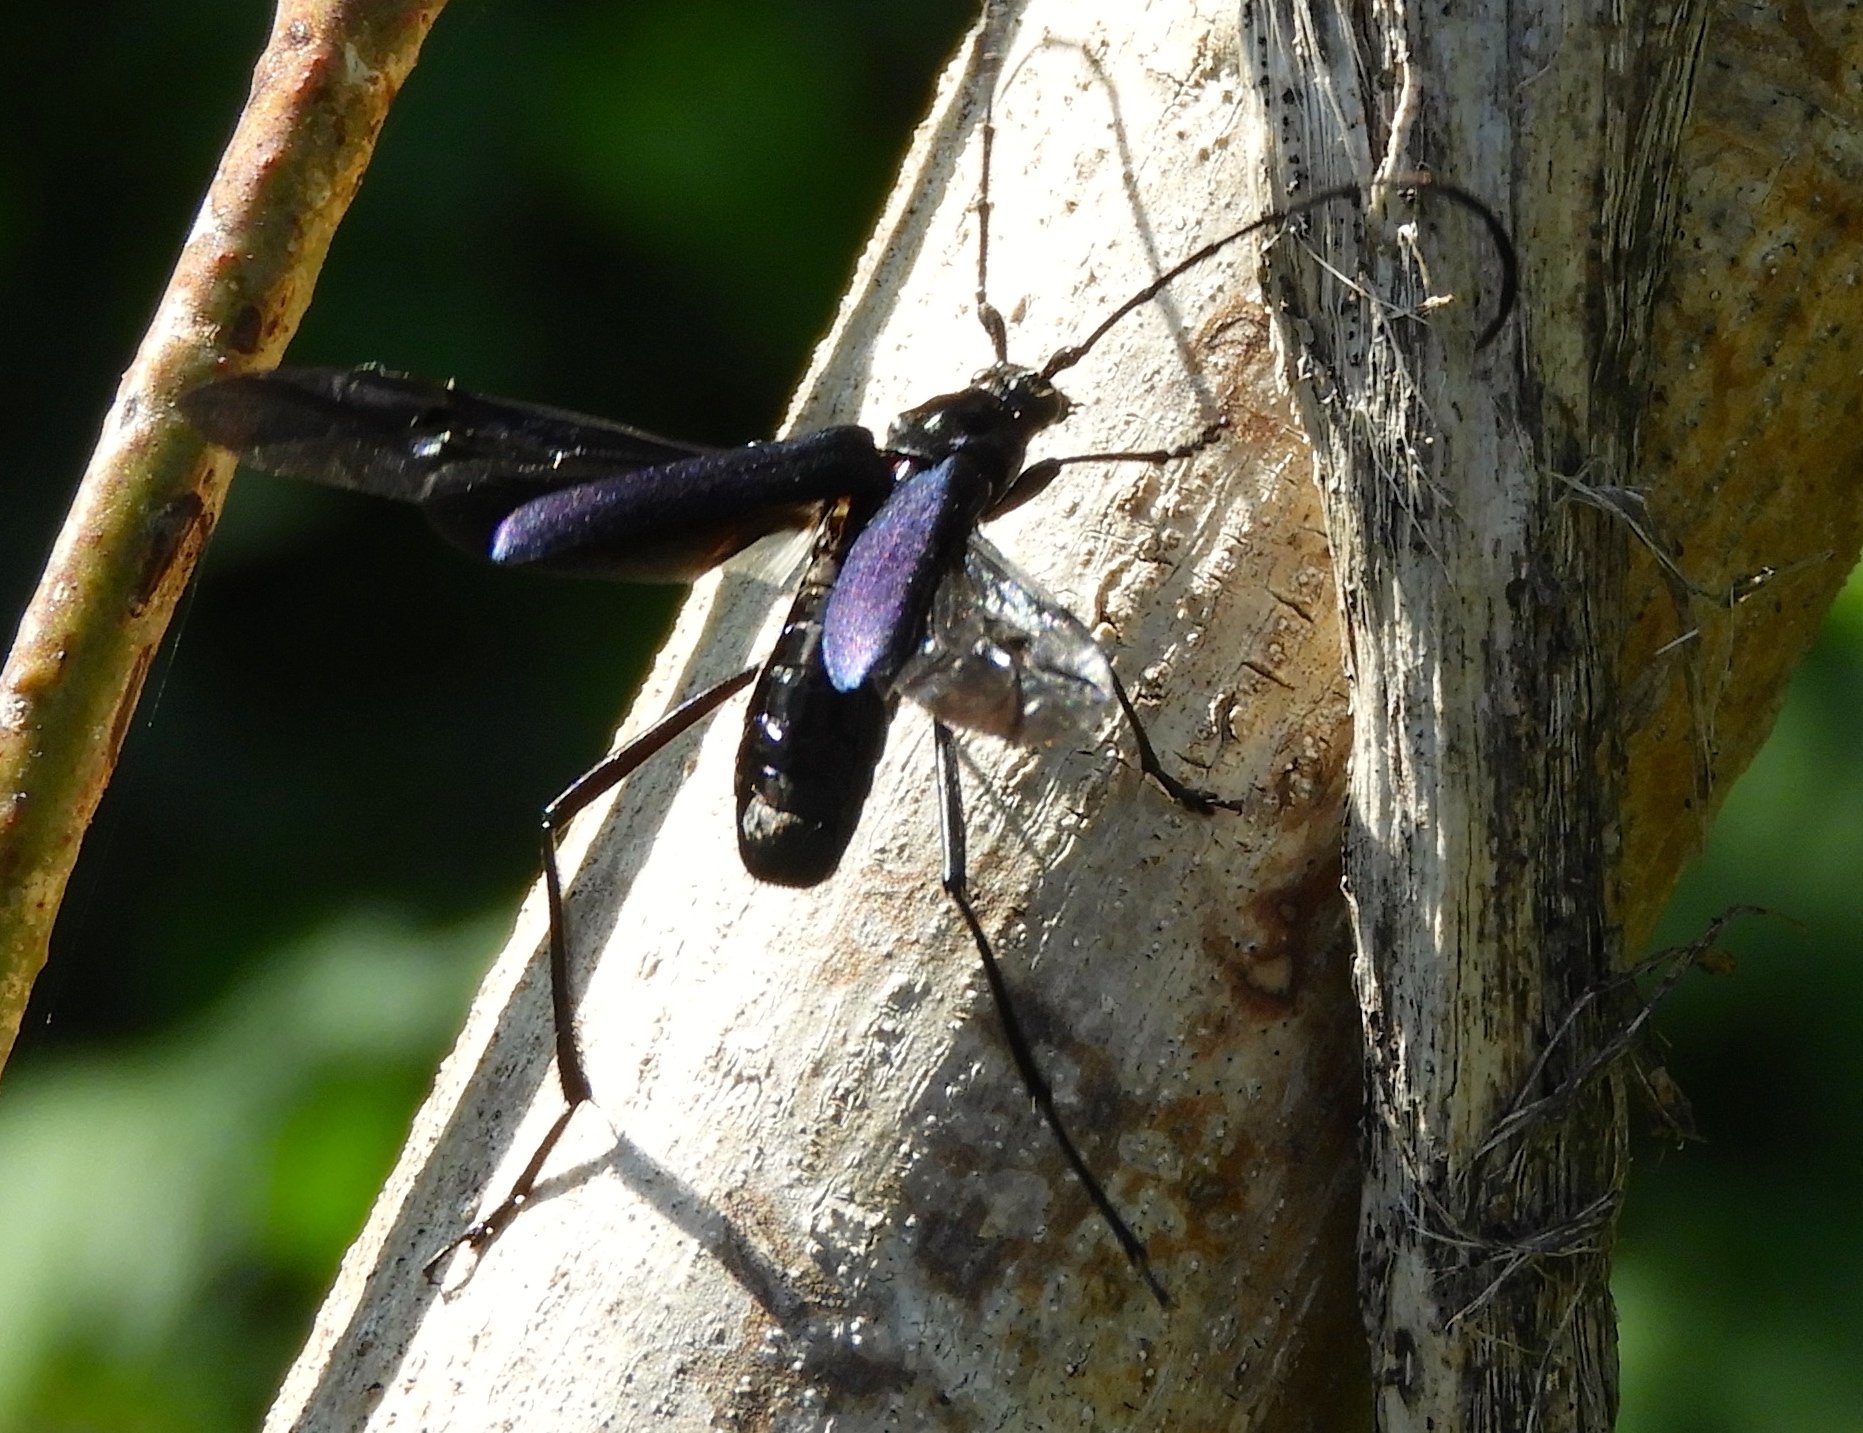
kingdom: Animalia
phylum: Arthropoda
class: Insecta
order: Coleoptera
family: Cerambycidae
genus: Pseudodeltaspis
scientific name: Pseudodeltaspis cyanea
